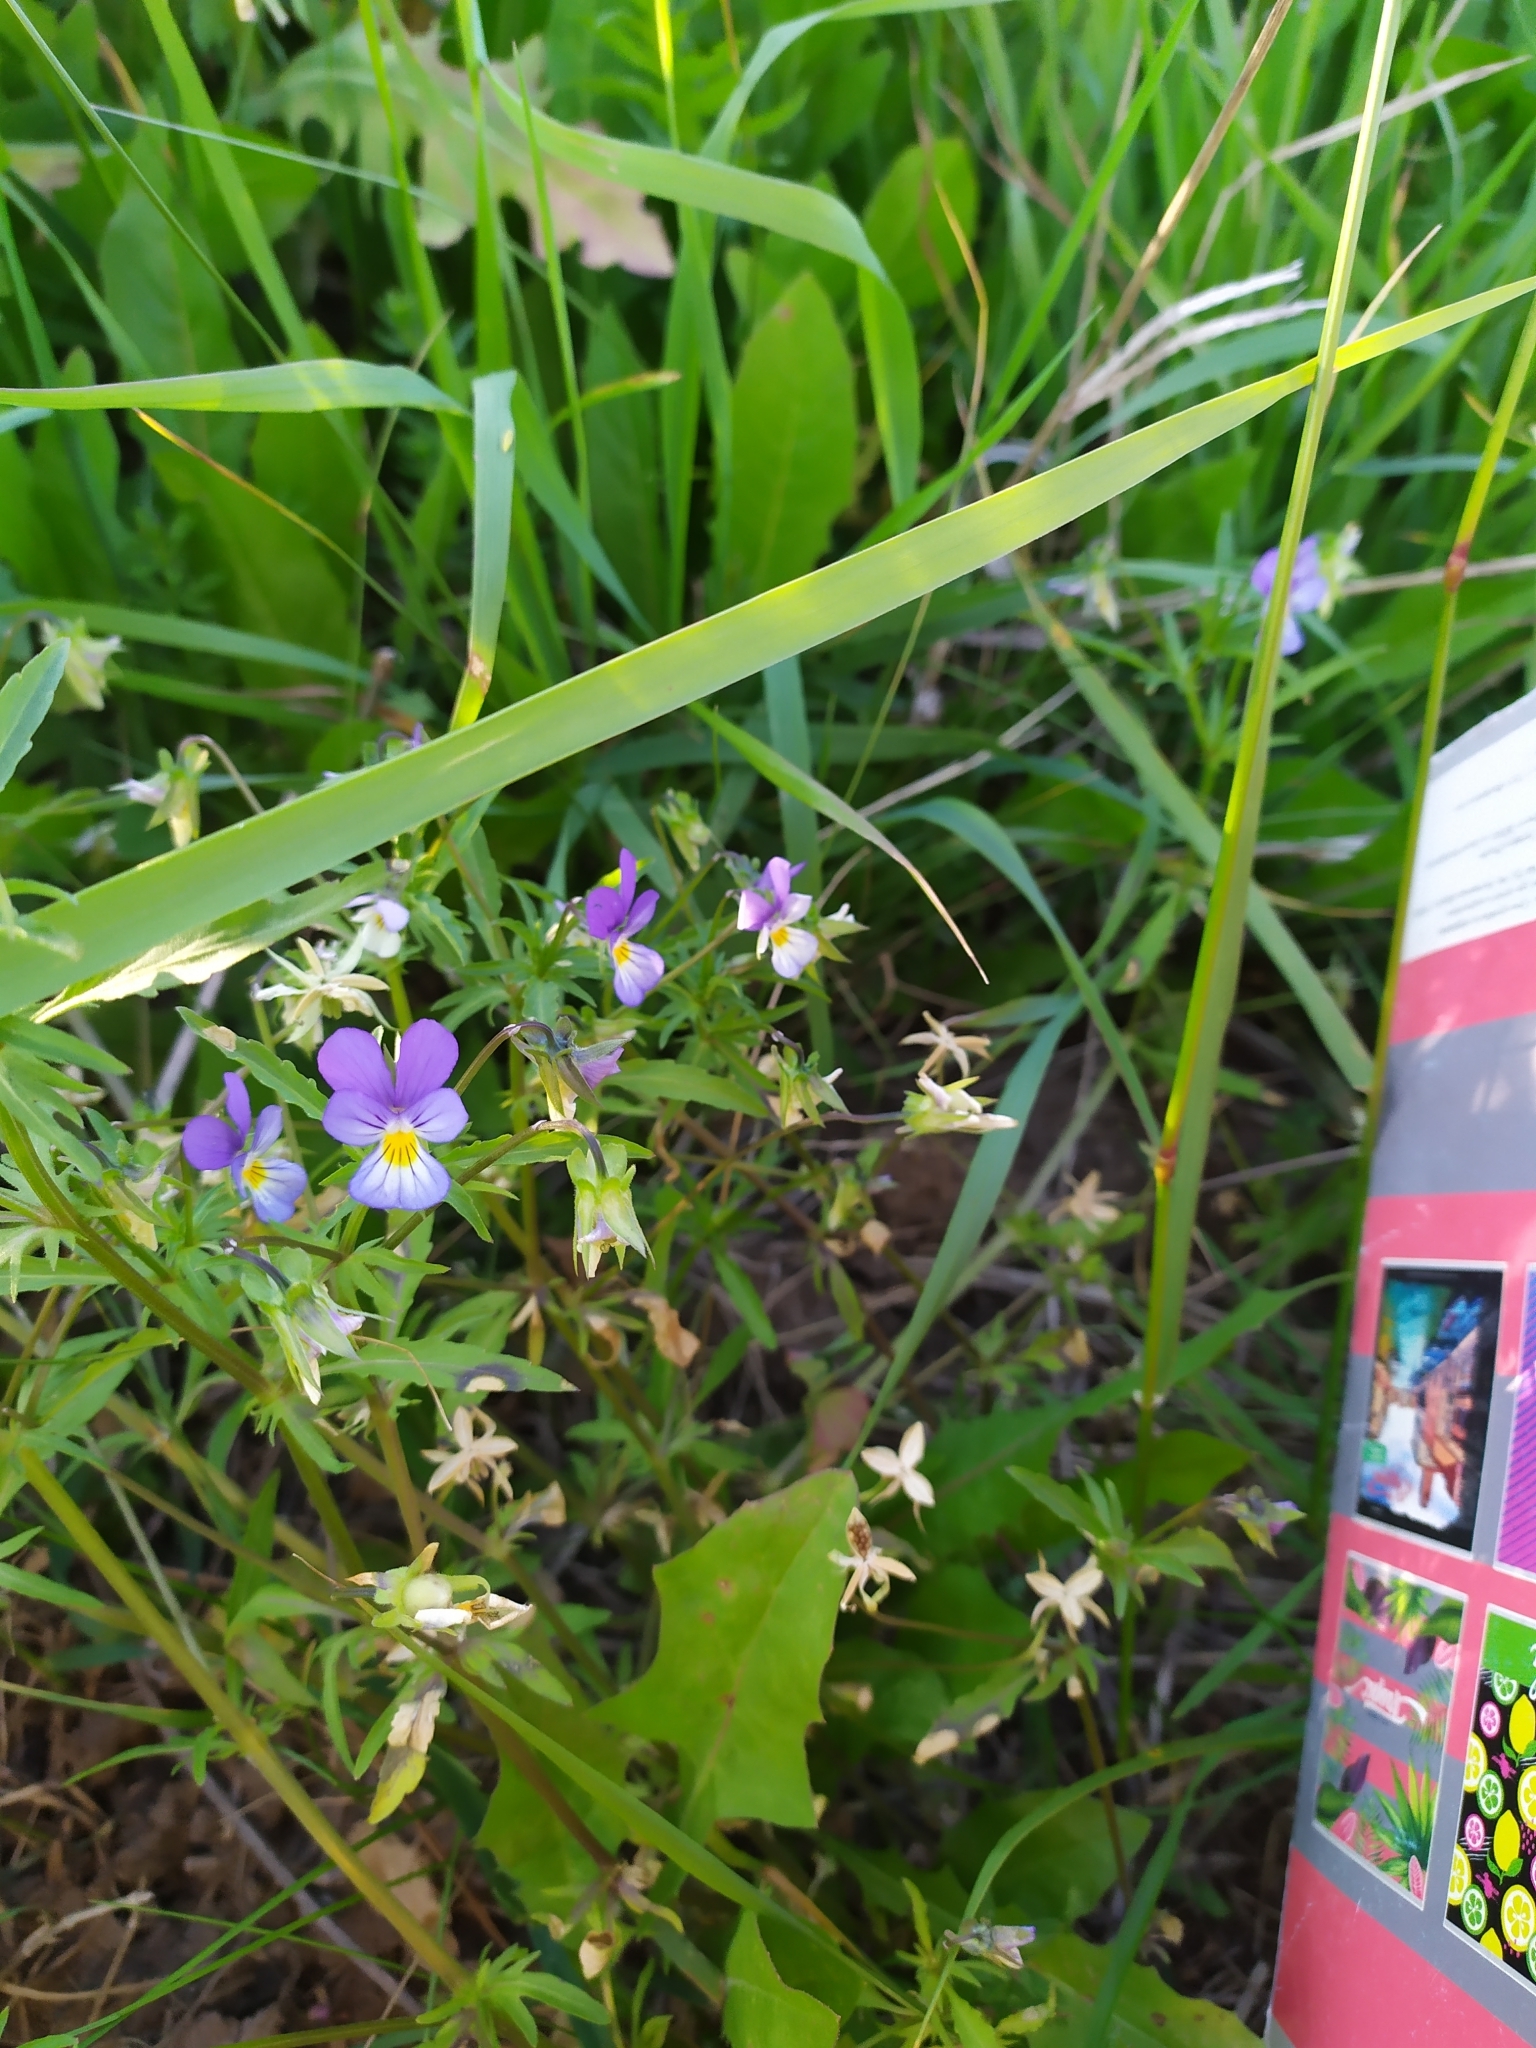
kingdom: Plantae
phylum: Tracheophyta
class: Magnoliopsida
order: Malpighiales
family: Violaceae
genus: Viola
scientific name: Viola tricolor
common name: Pansy
